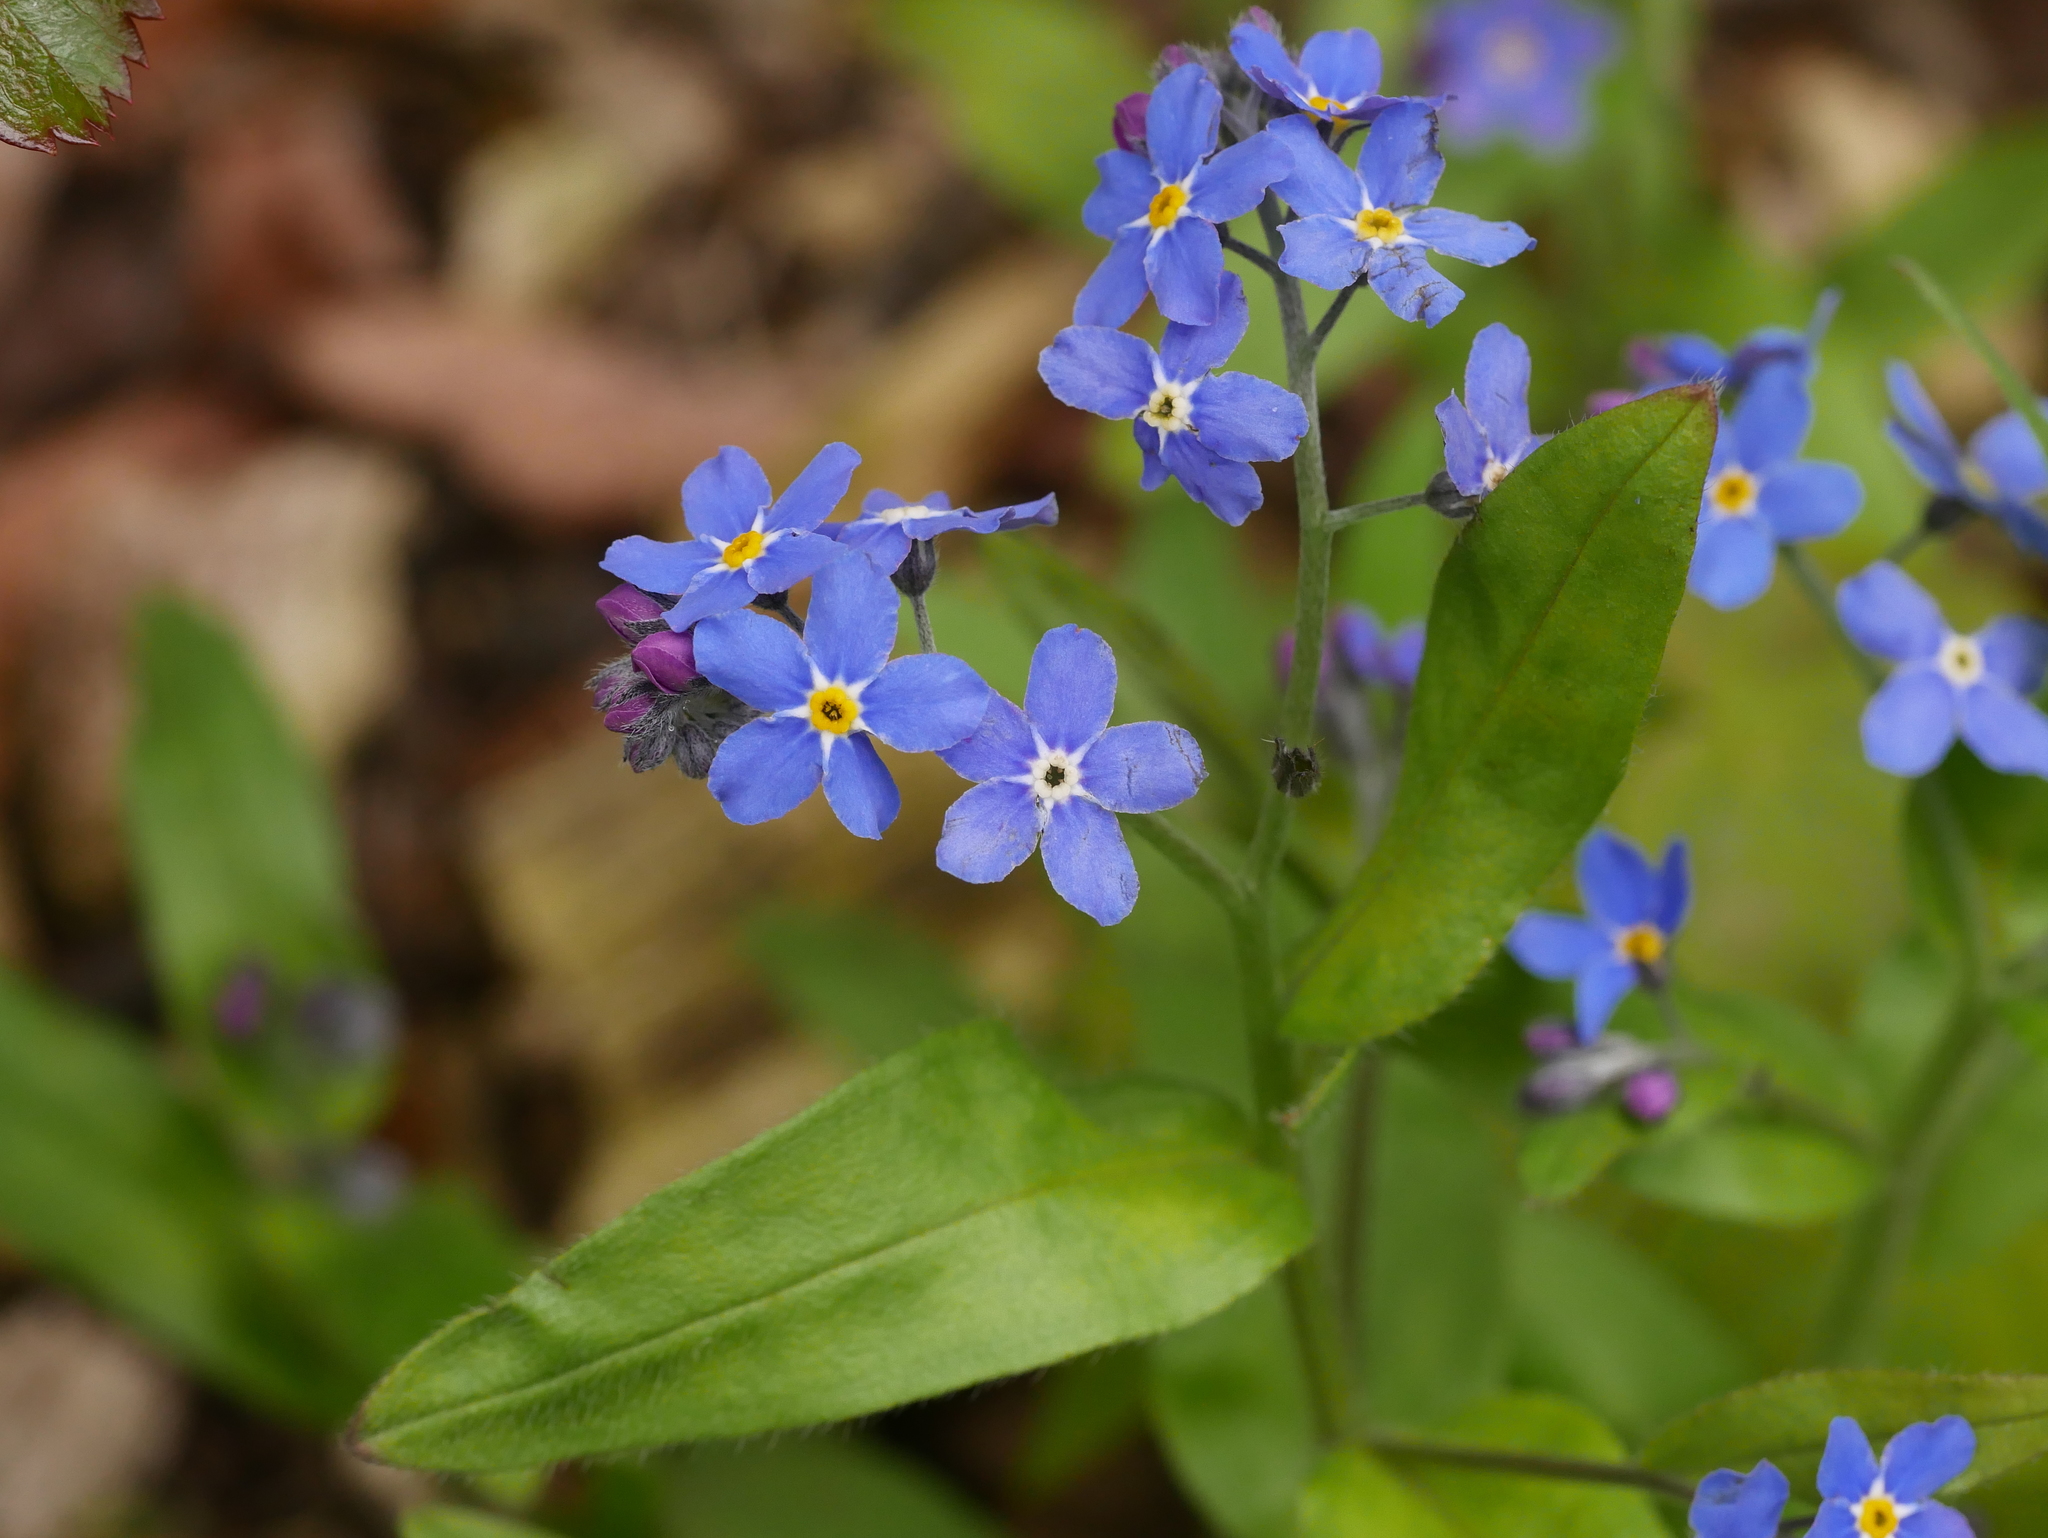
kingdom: Plantae
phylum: Tracheophyta
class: Magnoliopsida
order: Boraginales
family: Boraginaceae
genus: Myosotis
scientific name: Myosotis sylvatica
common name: Wood forget-me-not
